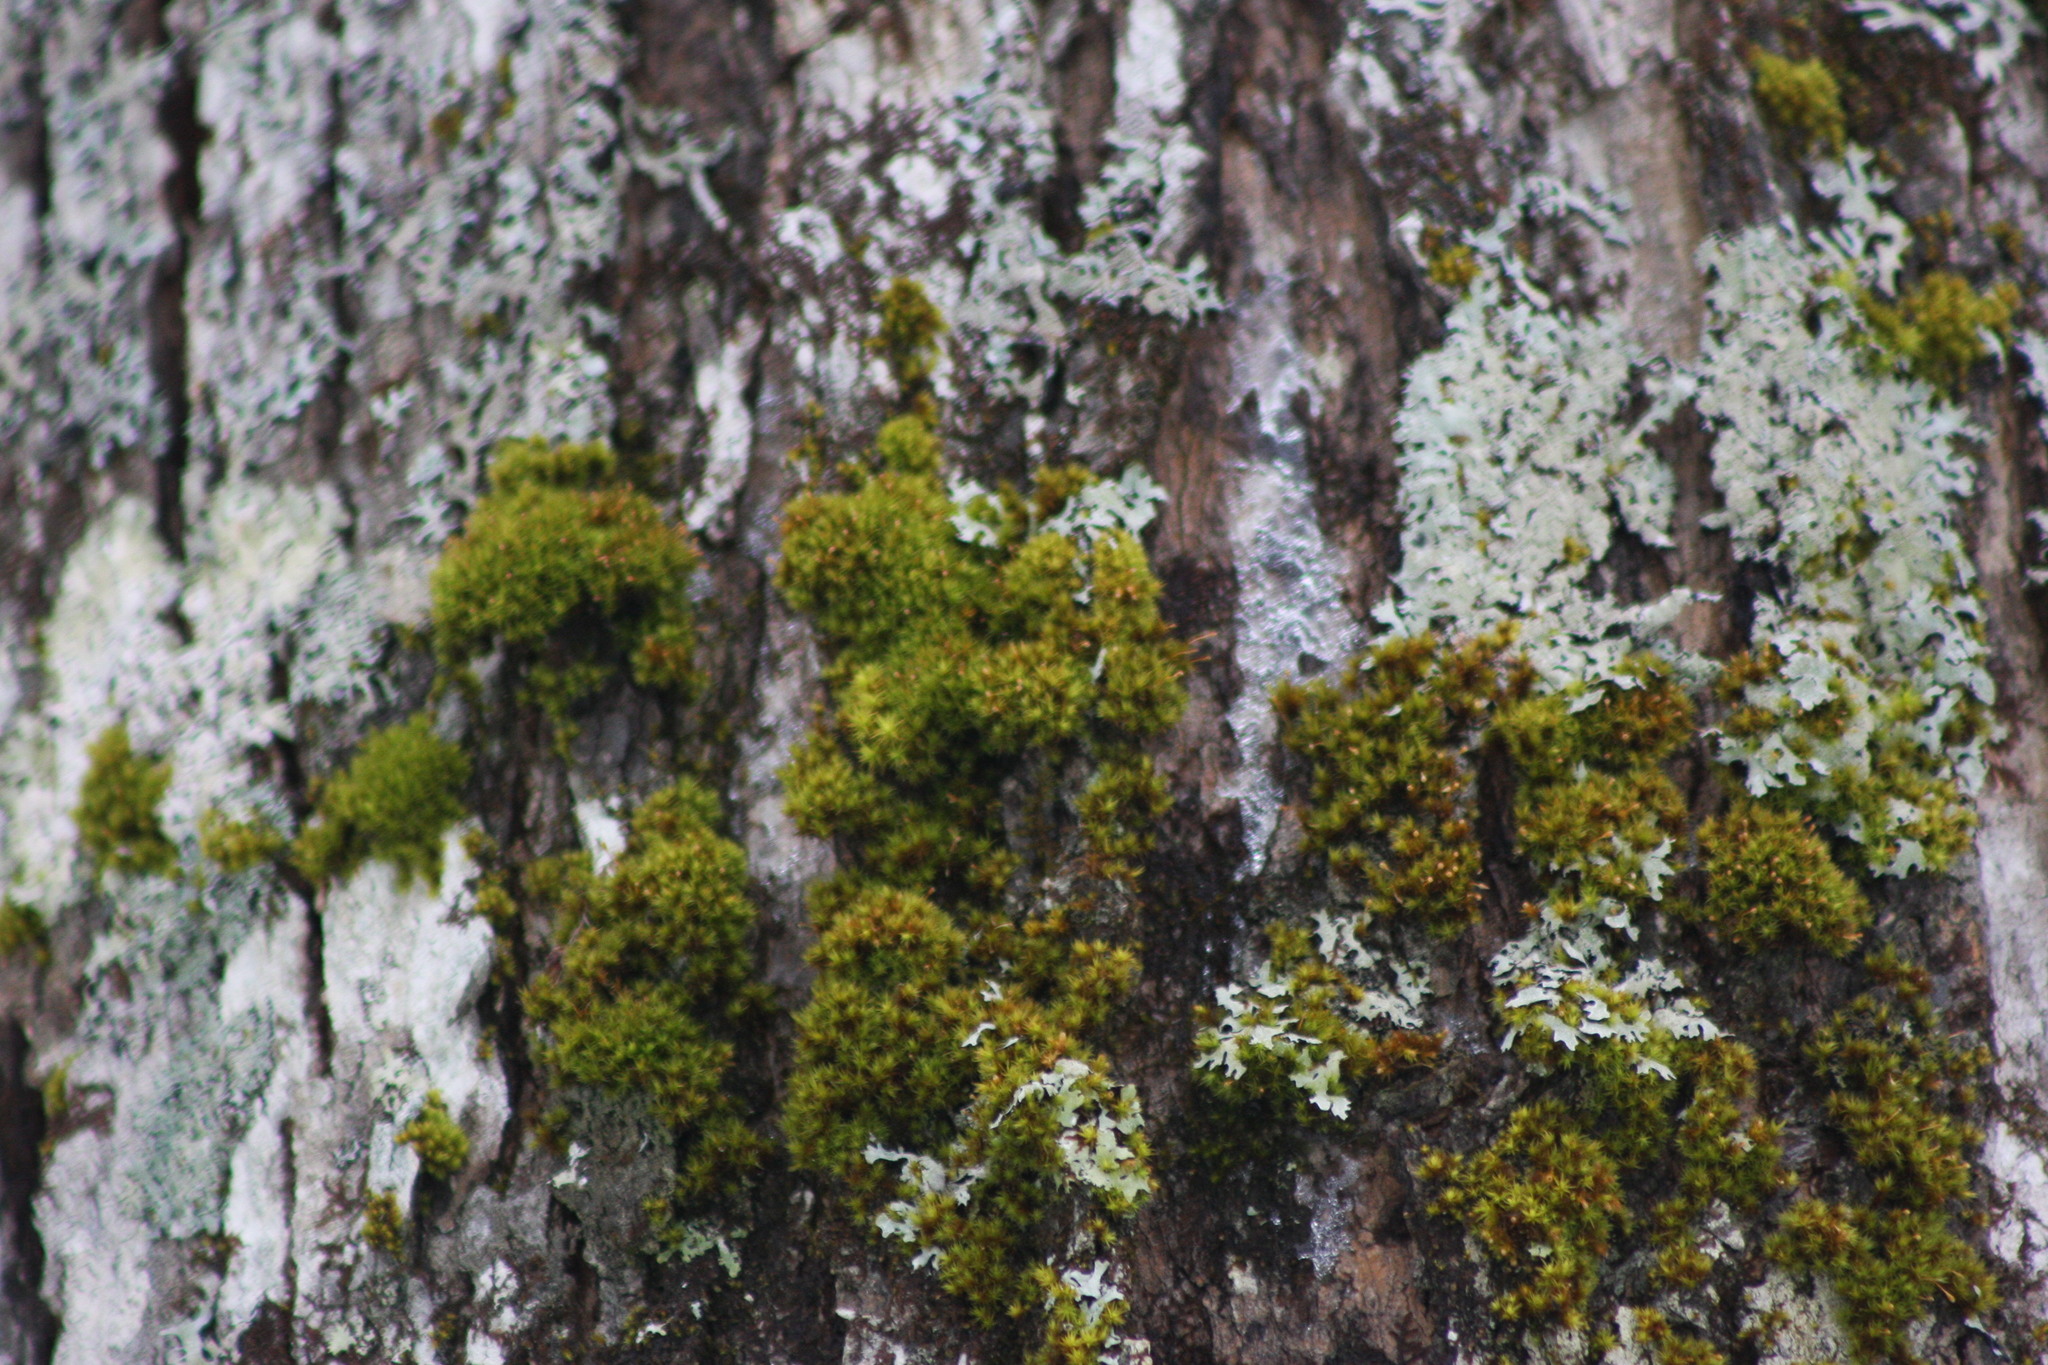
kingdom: Plantae
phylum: Bryophyta
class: Bryopsida
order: Orthotrichales
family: Orthotrichaceae
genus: Ulota
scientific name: Ulota crispa
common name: Crisped pincushion moss
